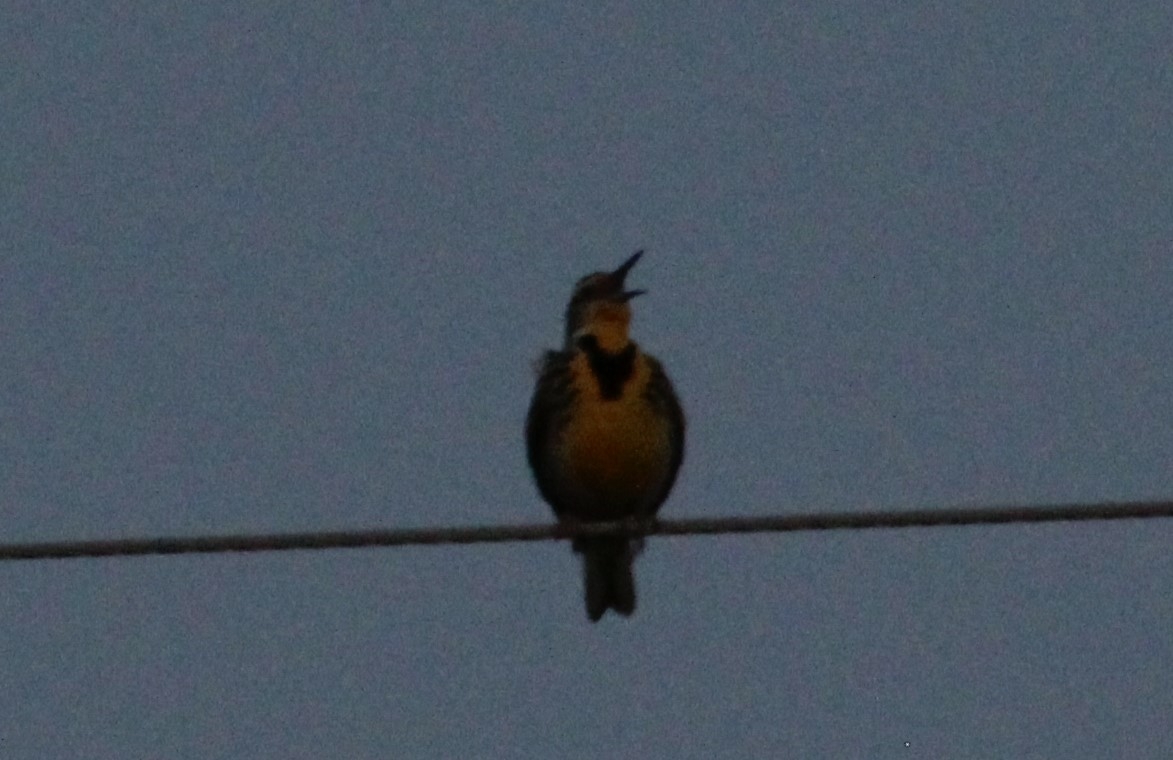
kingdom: Animalia
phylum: Chordata
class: Aves
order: Passeriformes
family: Icteridae
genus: Sturnella
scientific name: Sturnella neglecta
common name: Western meadowlark
